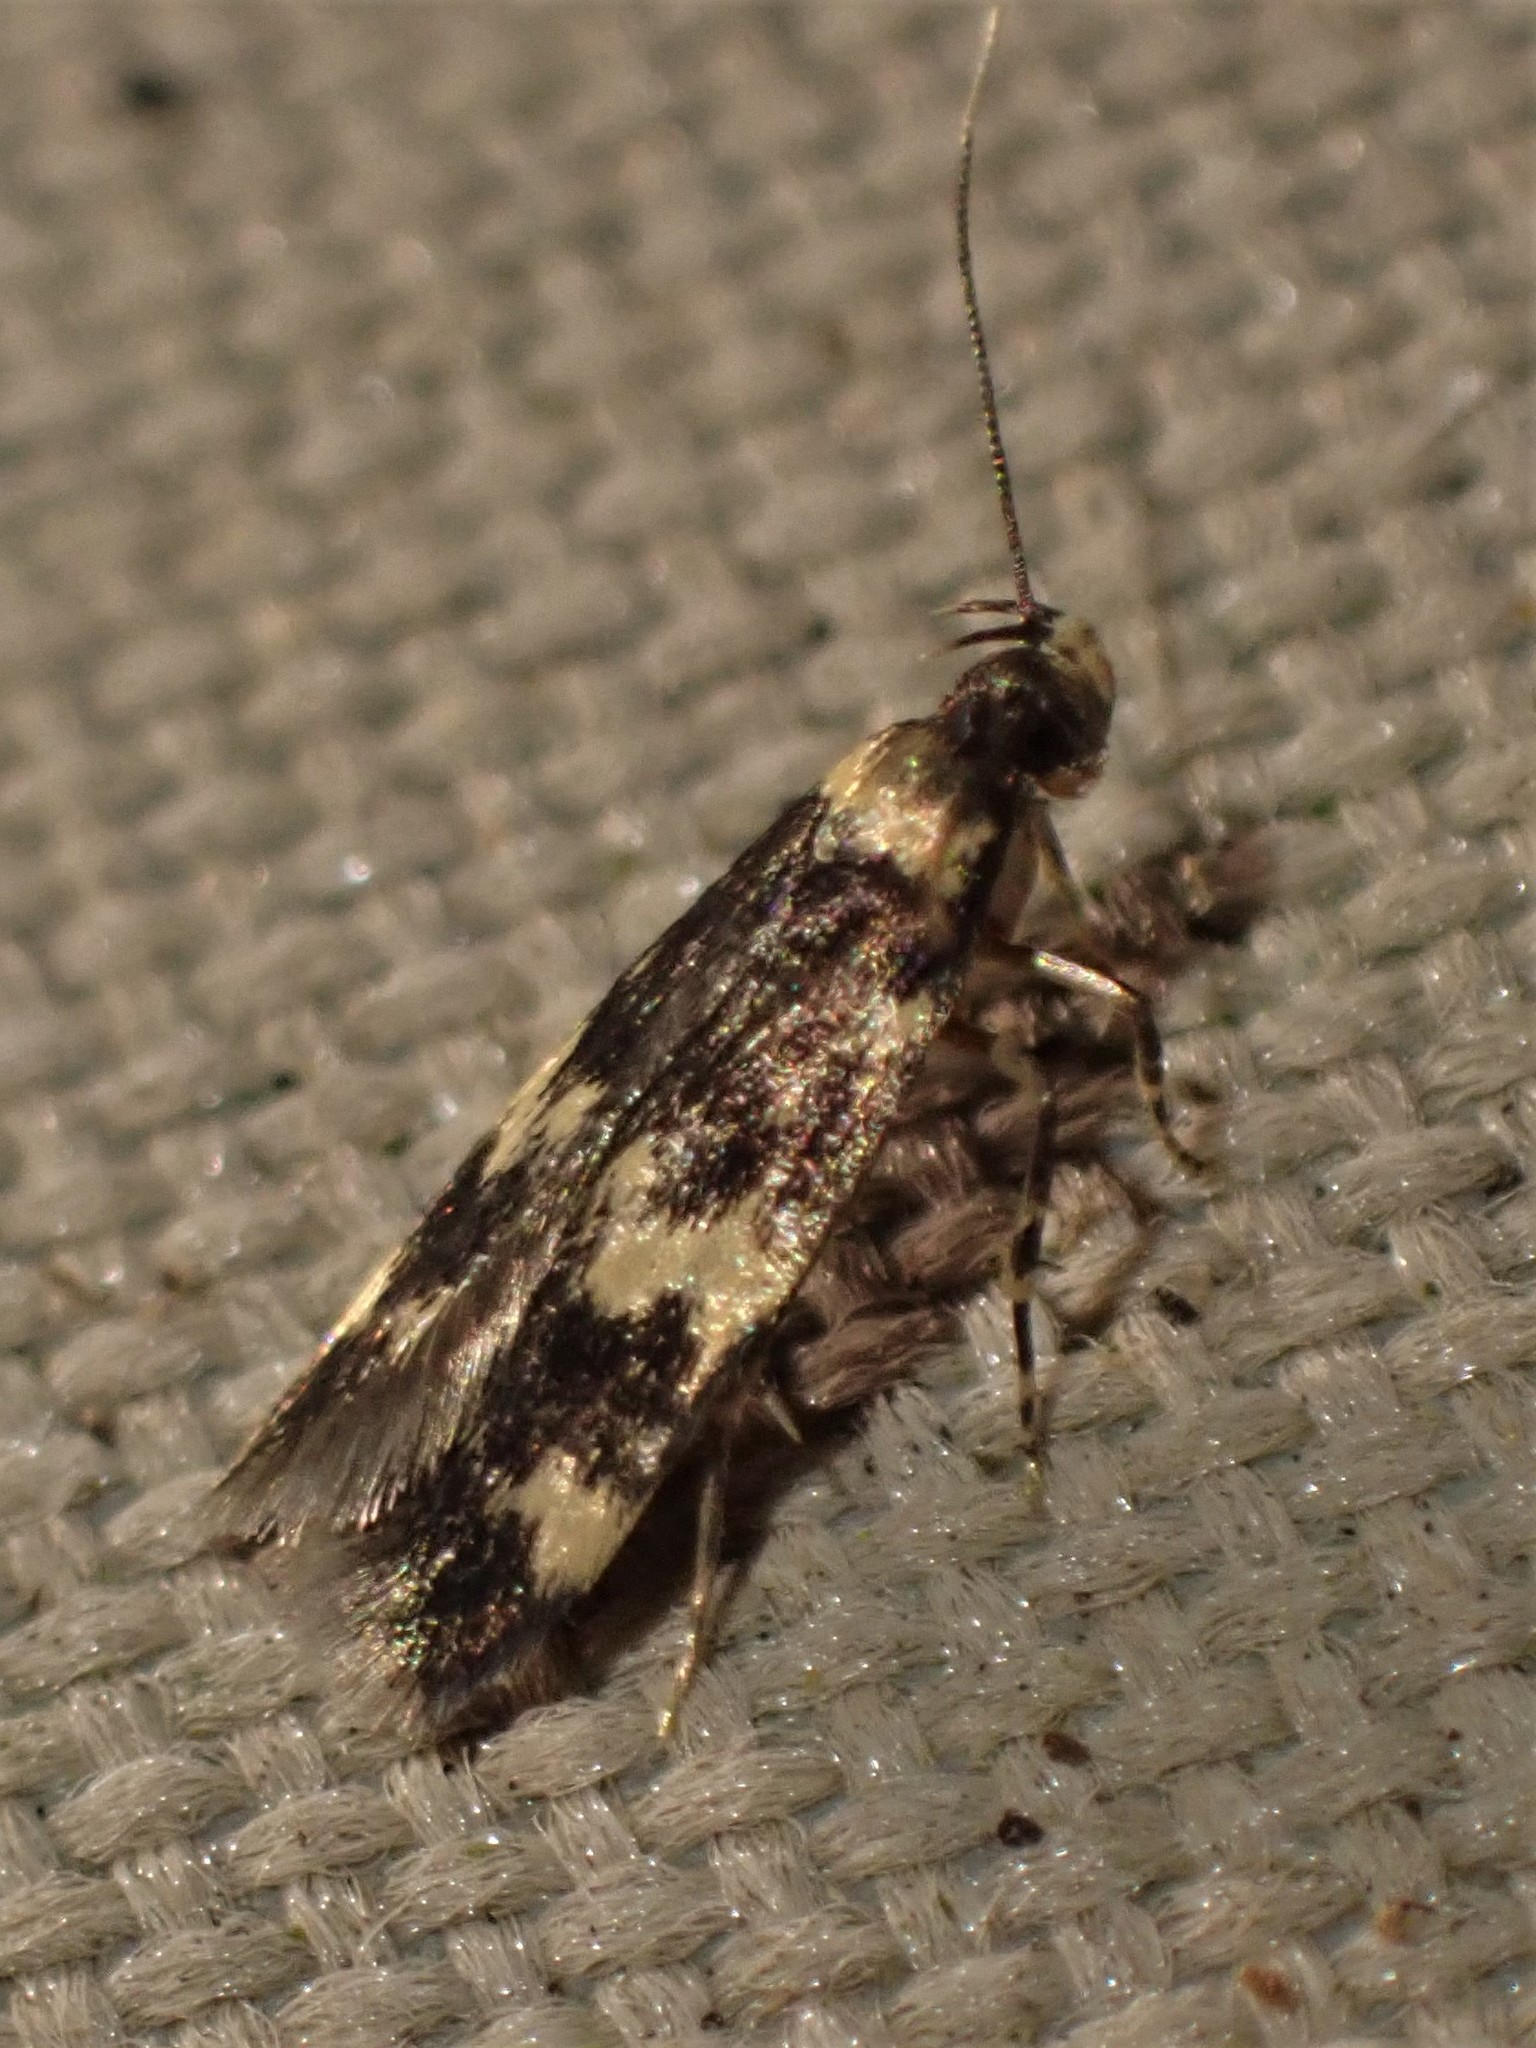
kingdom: Animalia
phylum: Arthropoda
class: Insecta
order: Lepidoptera
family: Autostichidae
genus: Oegoconia
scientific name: Oegoconia quadripuncta
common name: Four-spotted obscure
